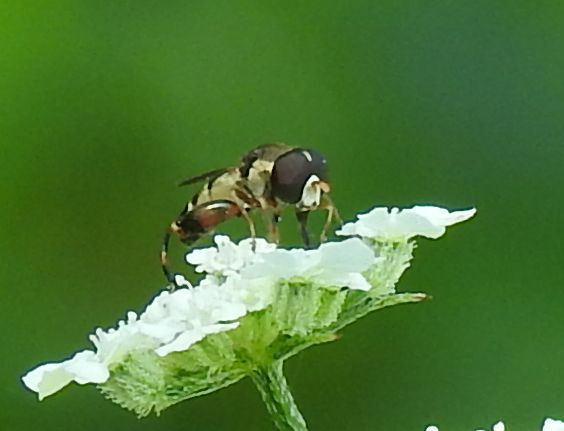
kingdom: Animalia
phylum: Arthropoda
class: Insecta
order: Diptera
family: Syrphidae
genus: Syritta
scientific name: Syritta pipiens
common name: Hover fly
